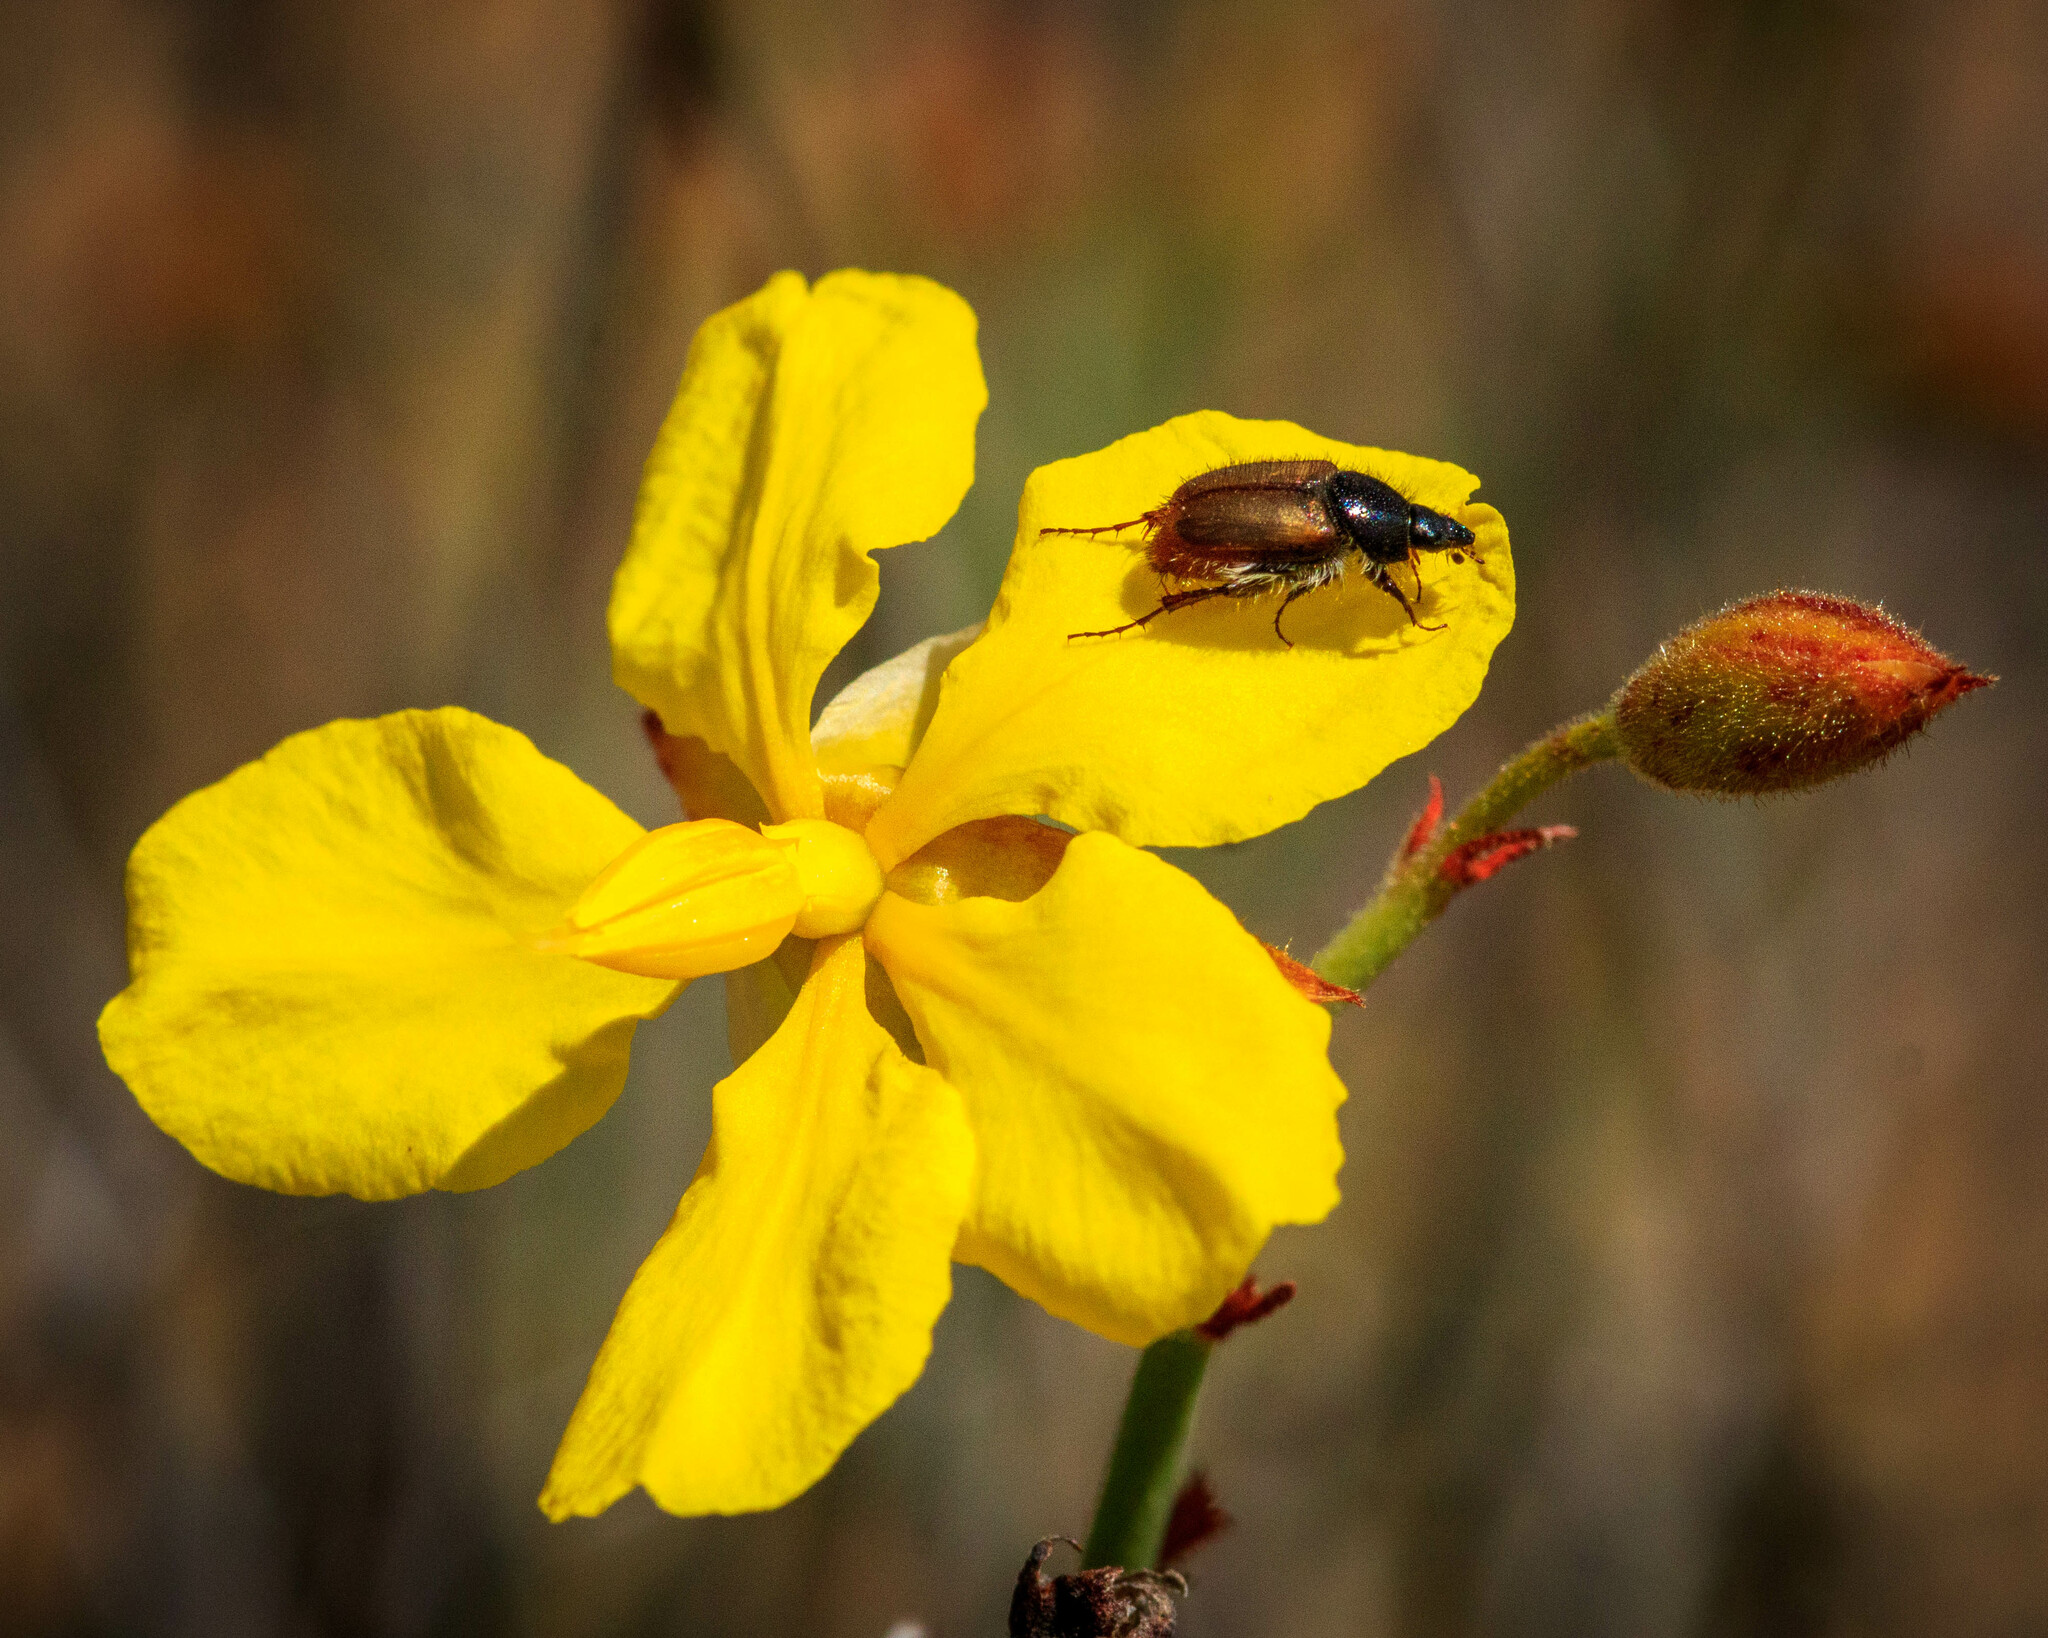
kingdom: Plantae
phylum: Tracheophyta
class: Magnoliopsida
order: Dilleniales
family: Dilleniaceae
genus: Hibbertia
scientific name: Hibbertia conspicua
